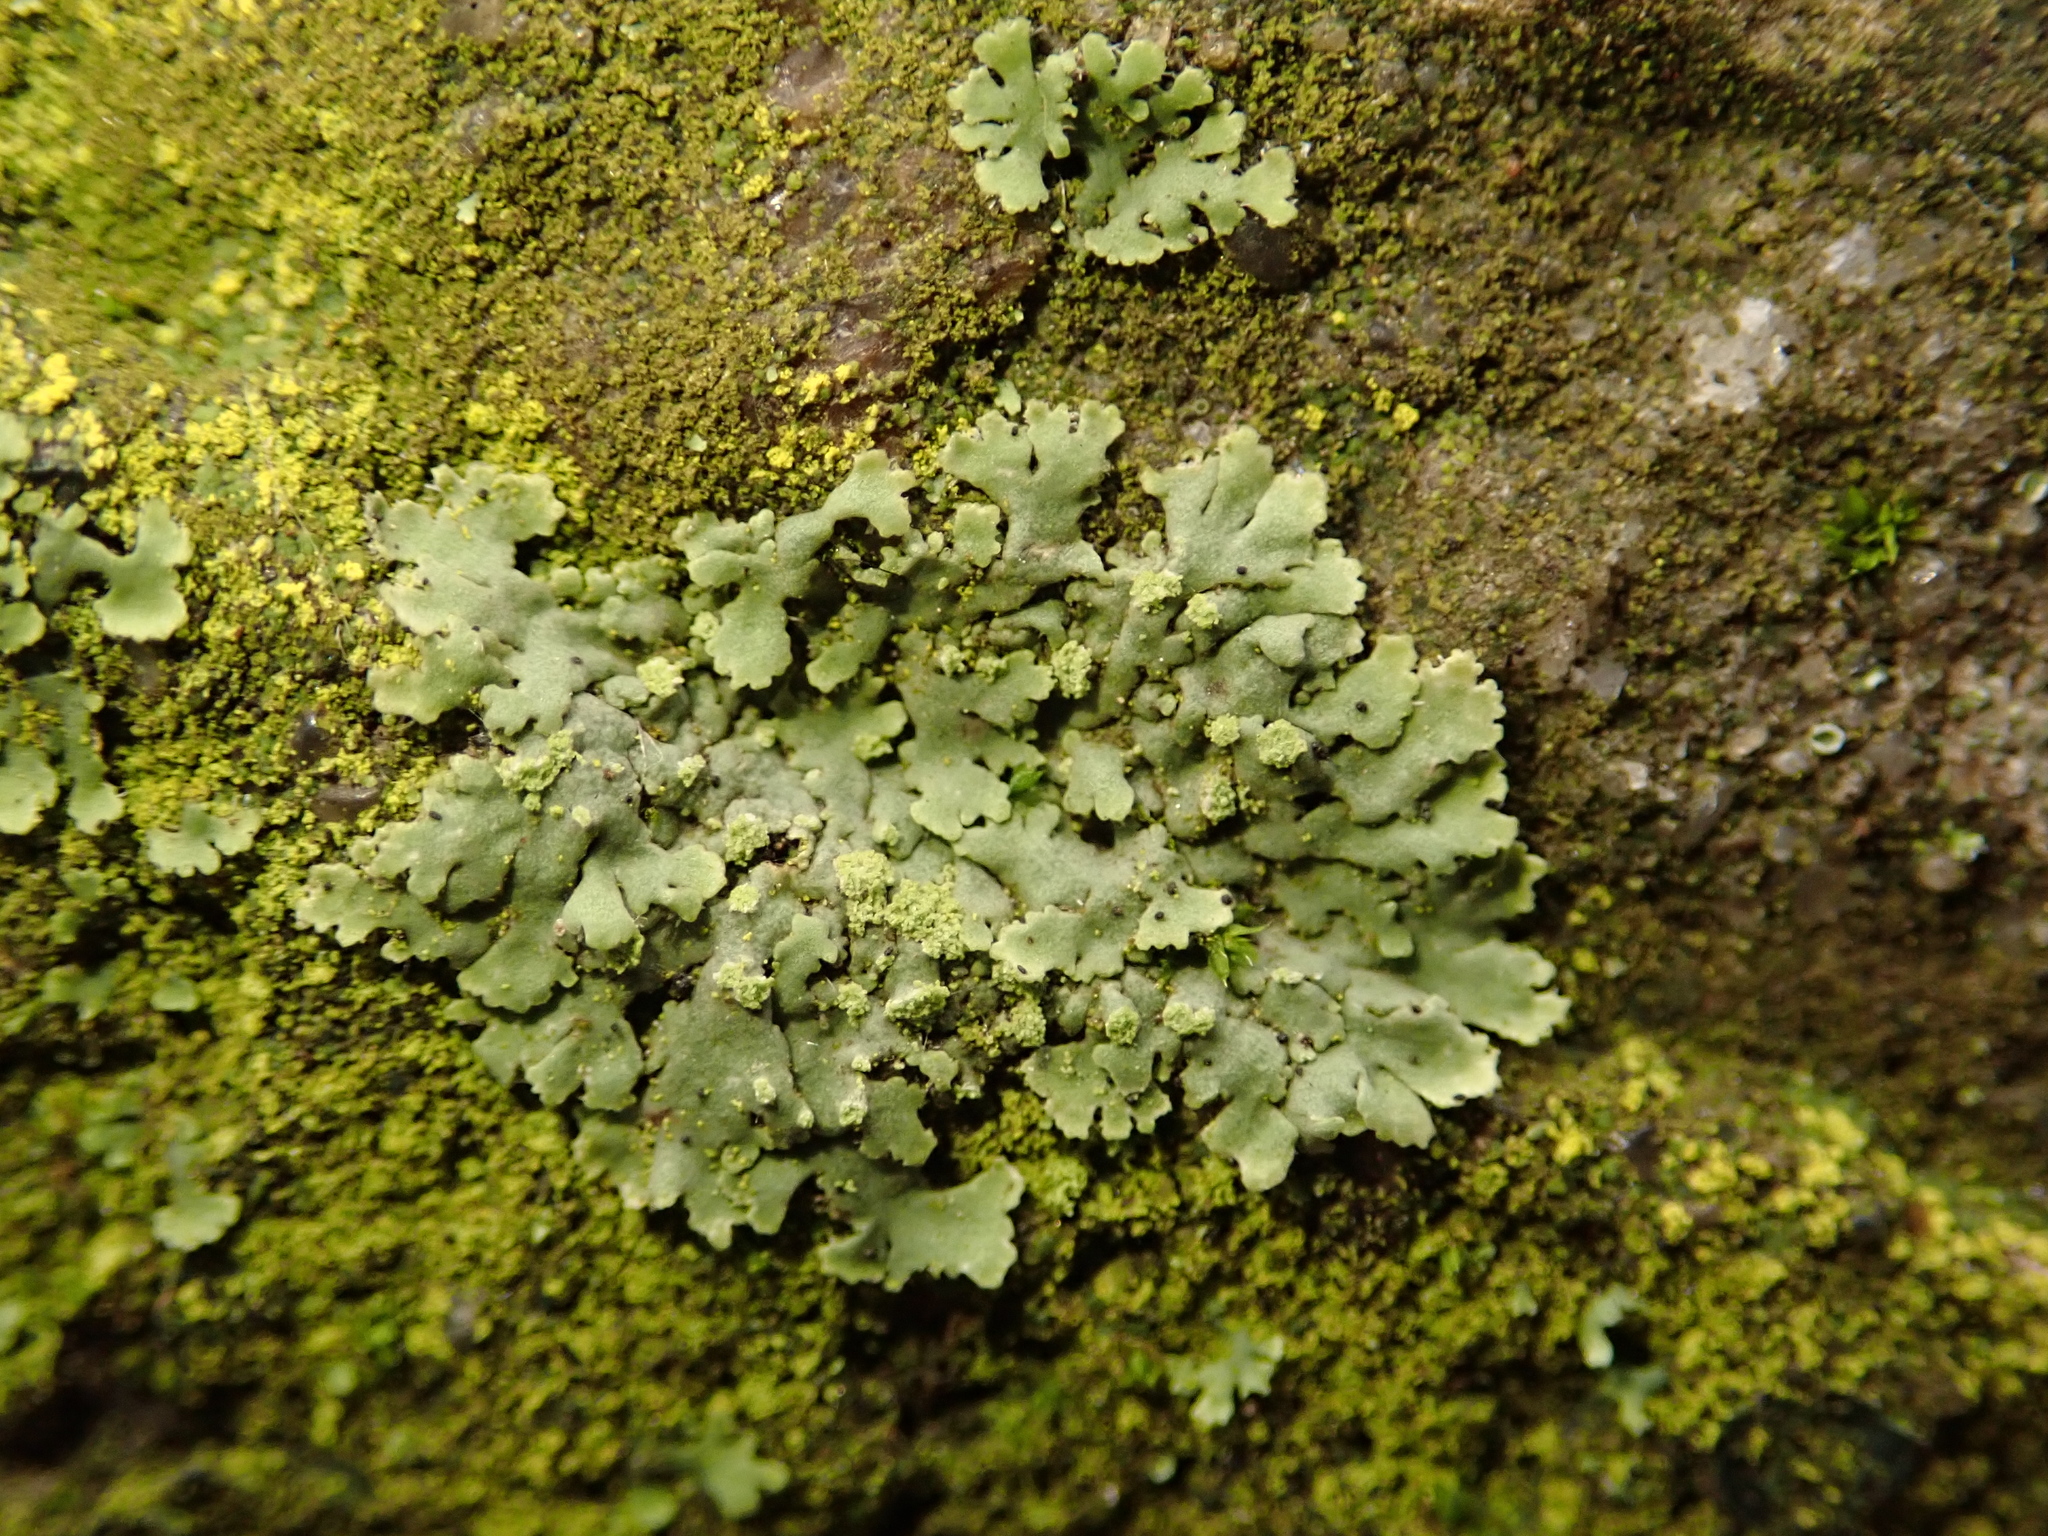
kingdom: Fungi
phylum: Ascomycota
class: Lecanoromycetes
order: Caliciales
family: Physciaceae
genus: Phaeophyscia
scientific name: Phaeophyscia orbicularis
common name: Mealy shadow lichen
